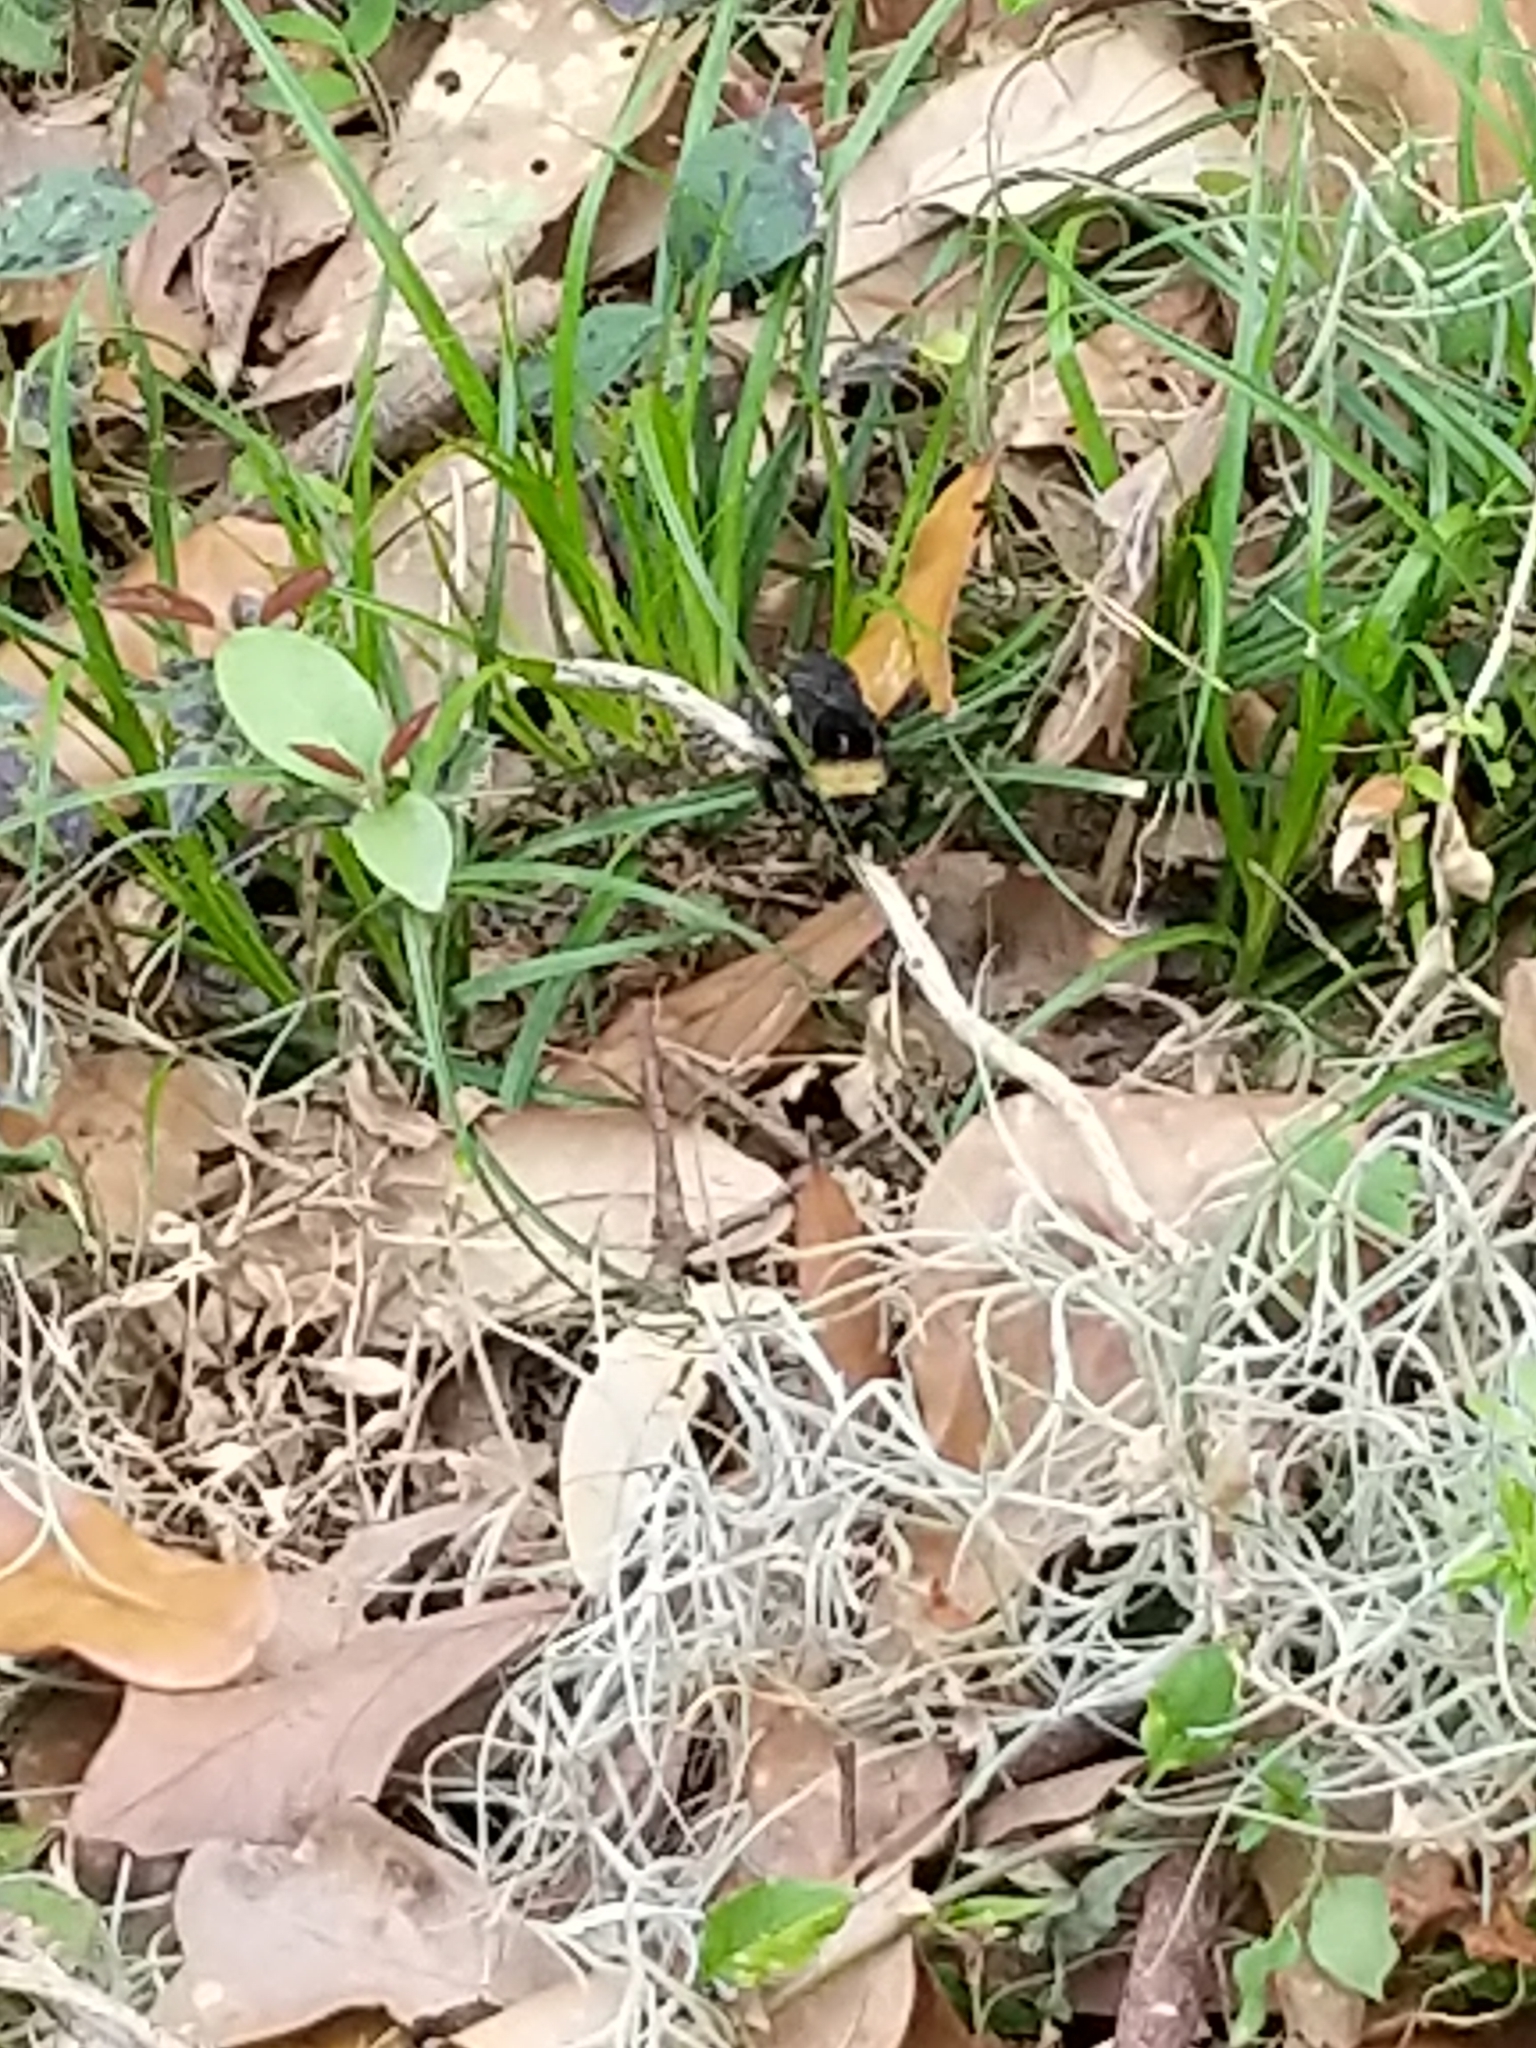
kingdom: Animalia
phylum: Arthropoda
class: Insecta
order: Hymenoptera
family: Apidae
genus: Bombus
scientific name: Bombus pensylvanicus
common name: Bumble bee
